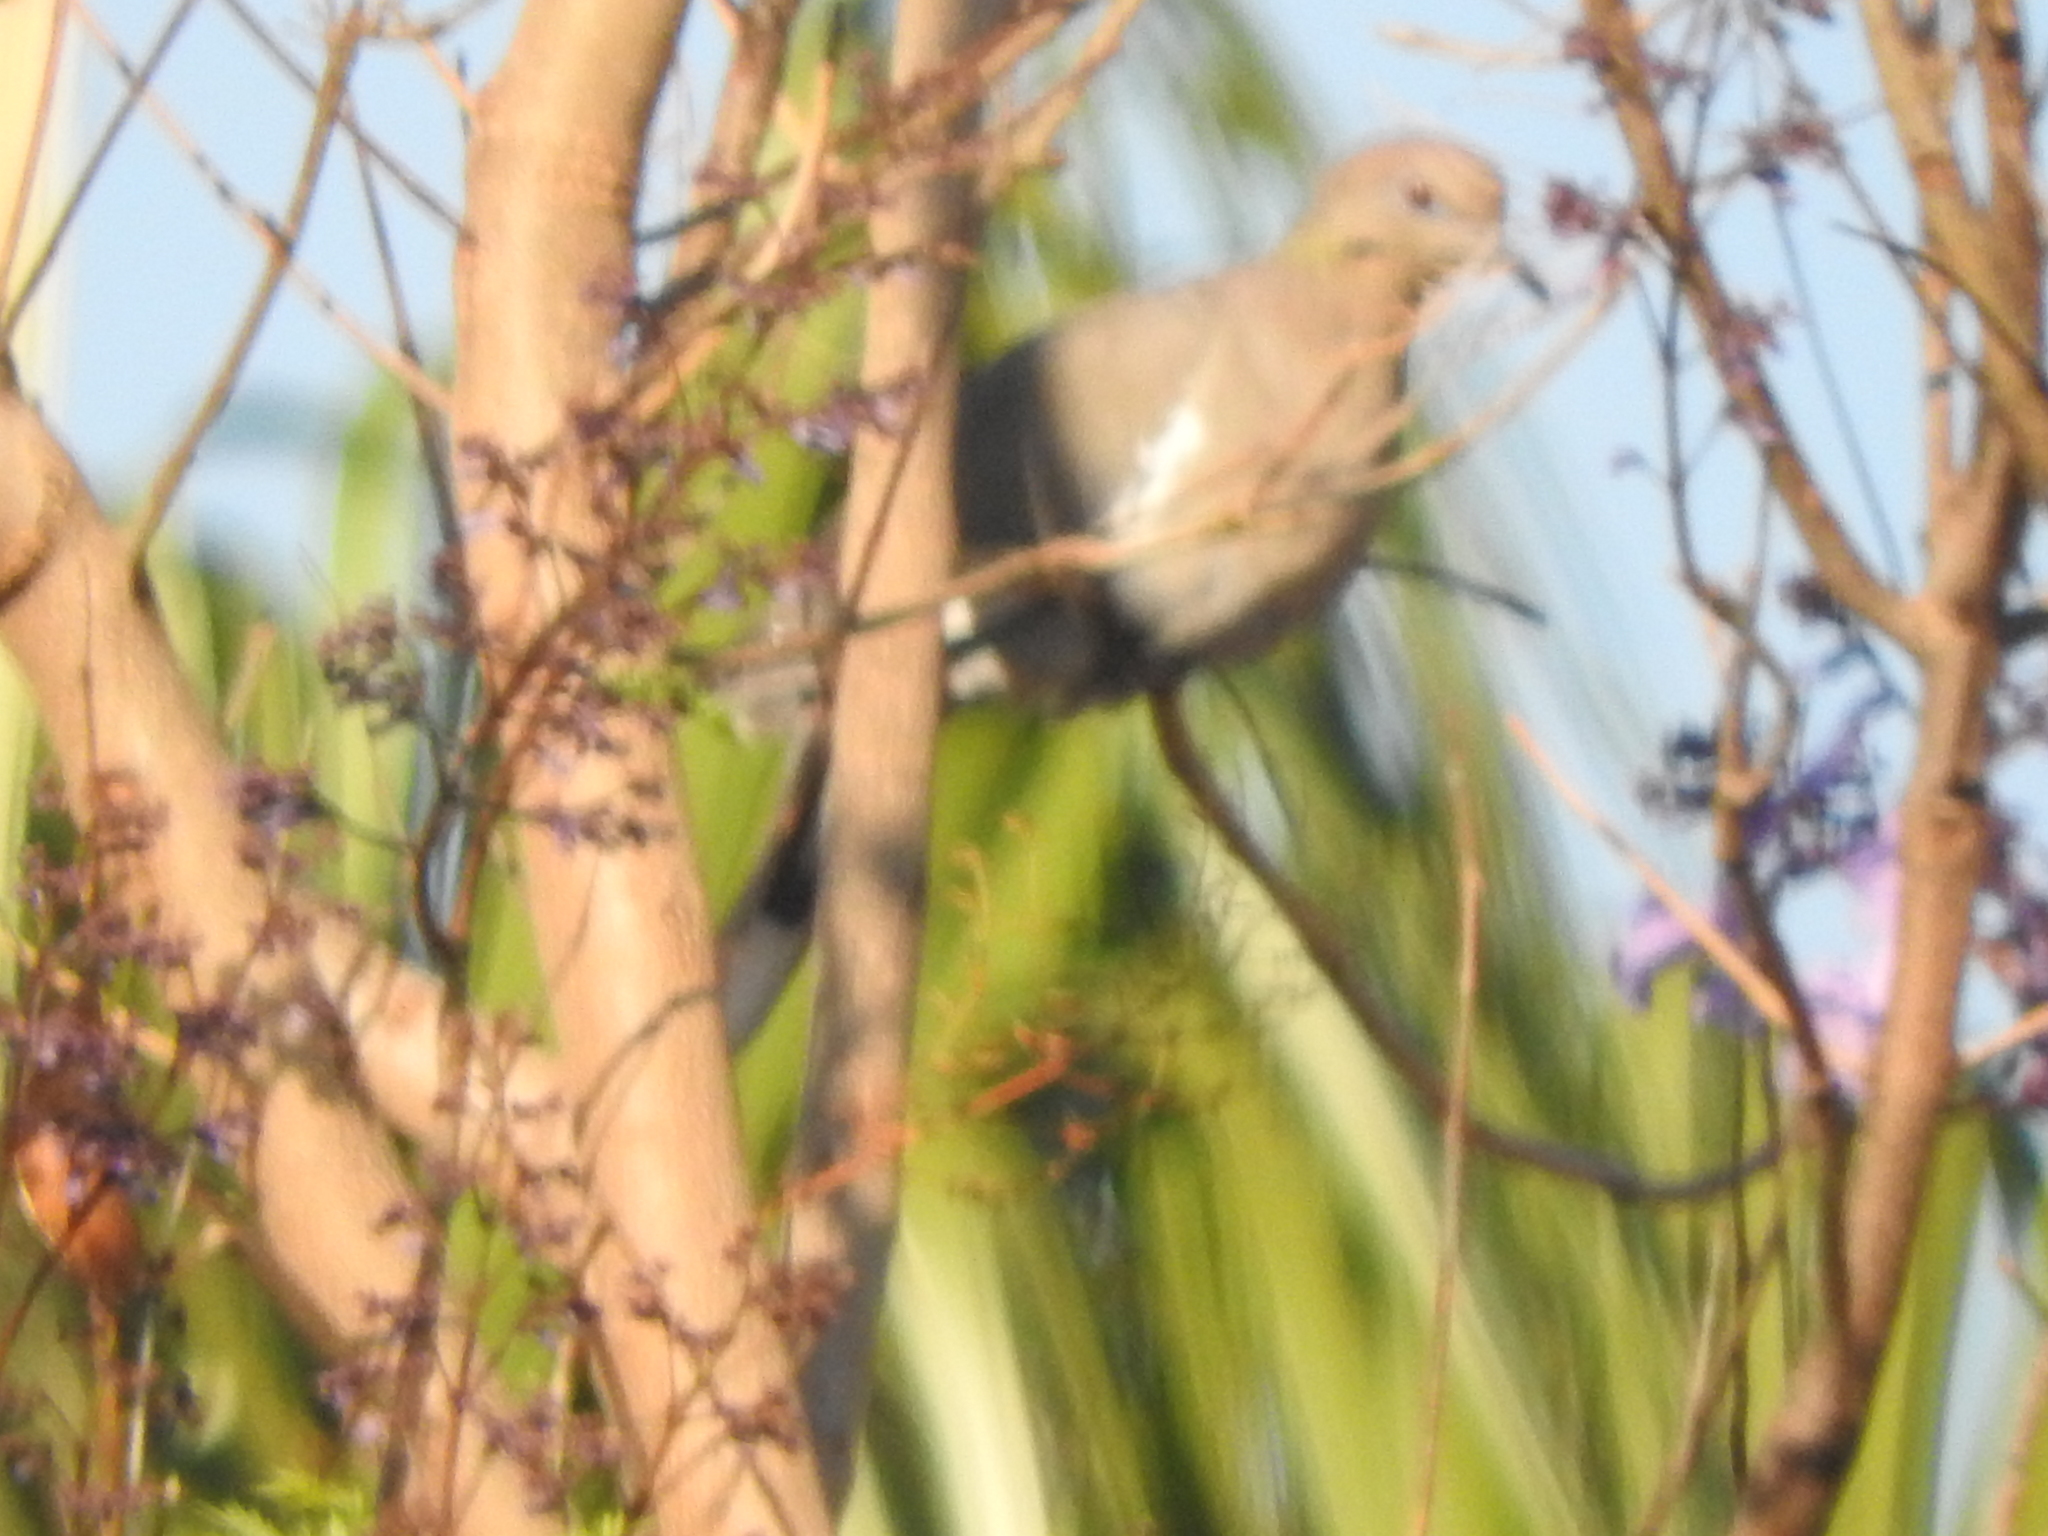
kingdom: Animalia
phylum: Chordata
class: Aves
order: Columbiformes
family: Columbidae
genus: Zenaida
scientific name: Zenaida asiatica
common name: White-winged dove
